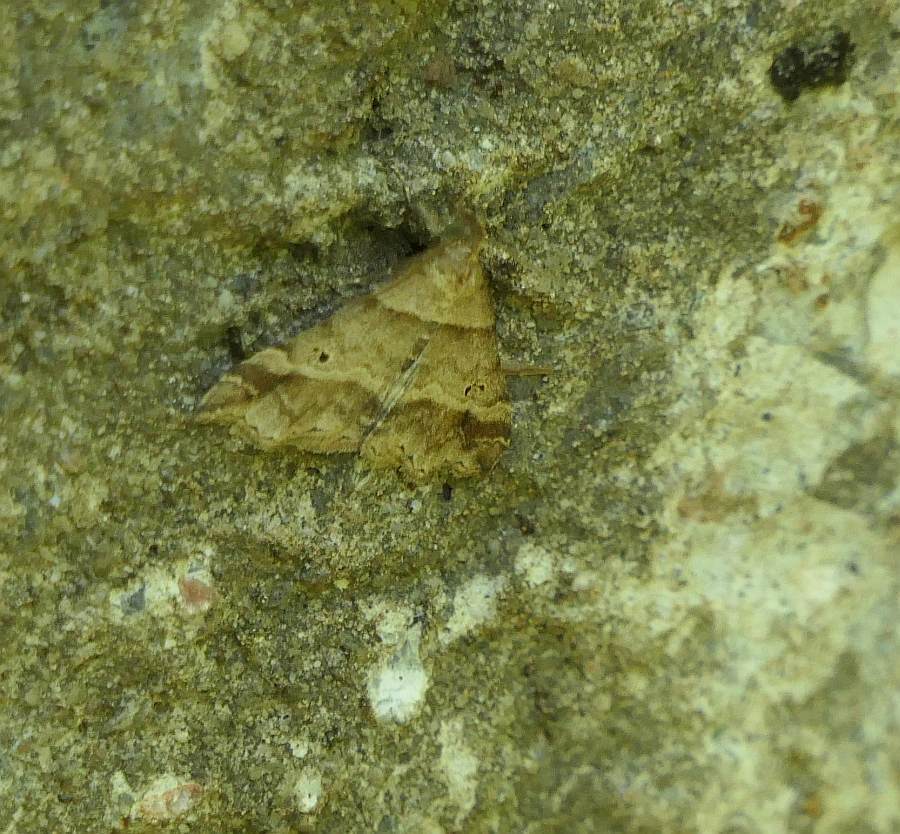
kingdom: Animalia
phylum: Arthropoda
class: Insecta
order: Lepidoptera
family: Erebidae
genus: Phaeolita
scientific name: Phaeolita pyramusalis
